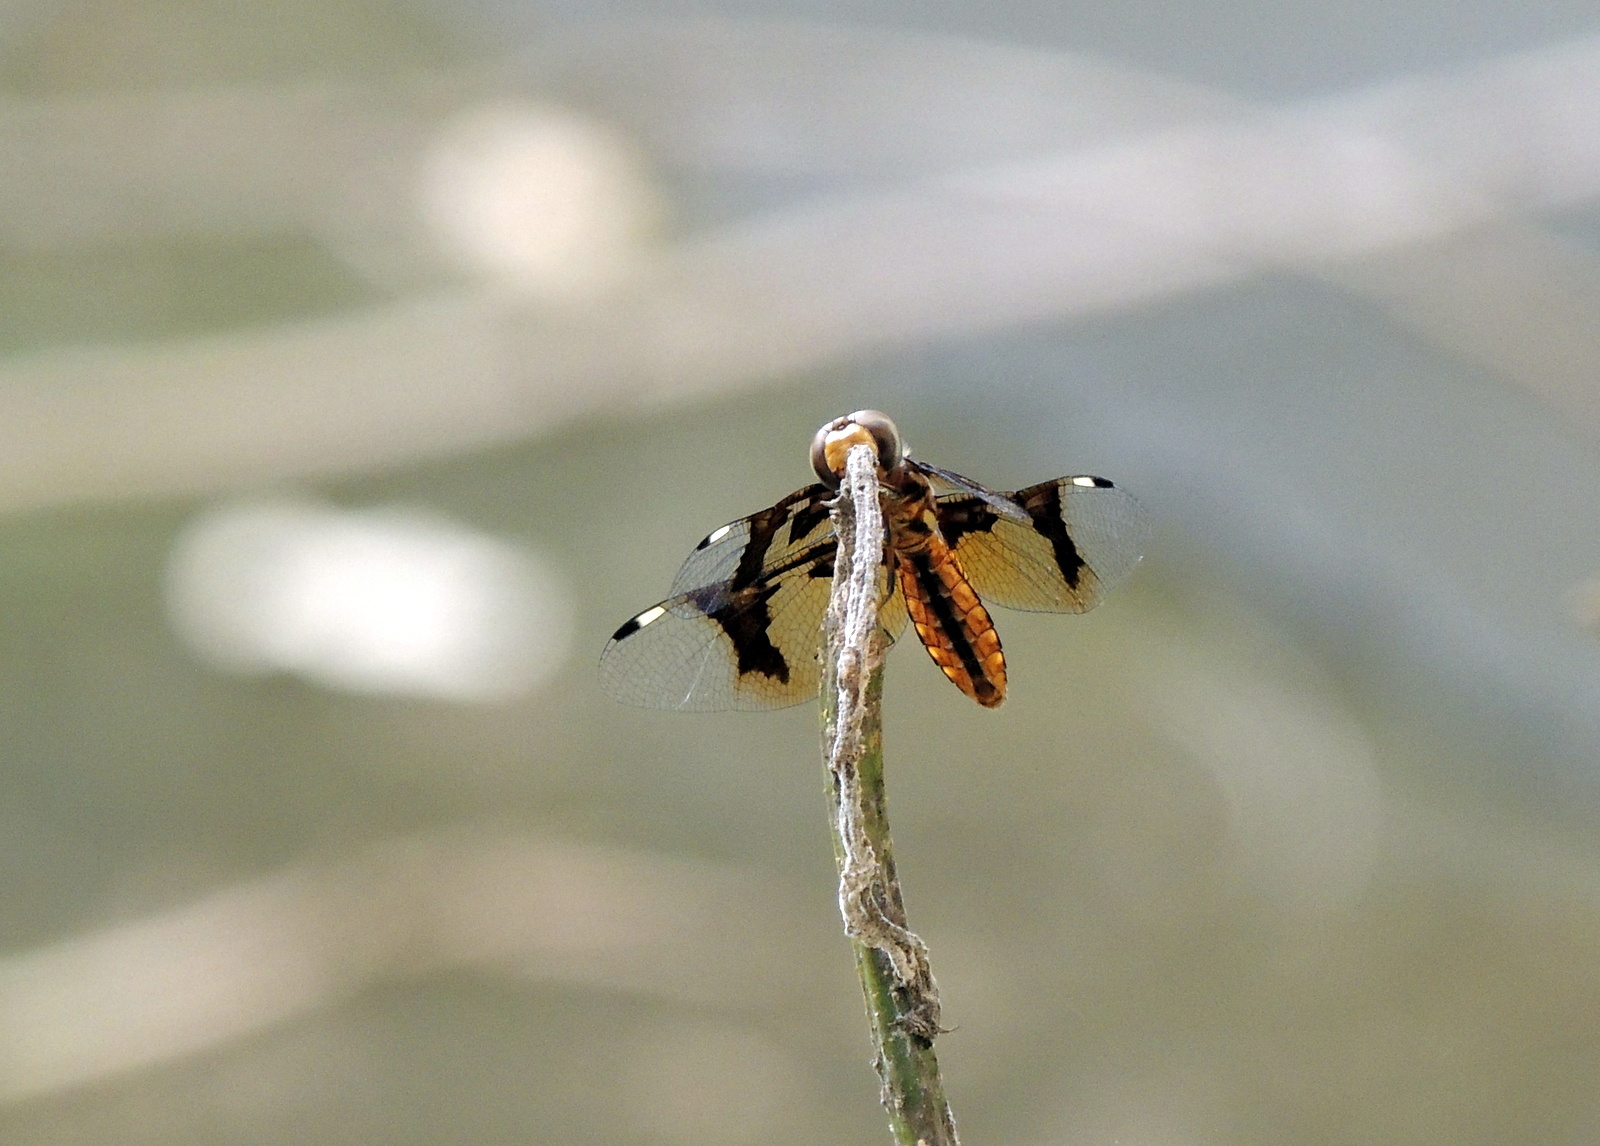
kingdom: Animalia
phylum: Arthropoda
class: Insecta
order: Odonata
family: Libellulidae
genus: Palpopleura
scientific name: Palpopleura lucia
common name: Lucia widow
